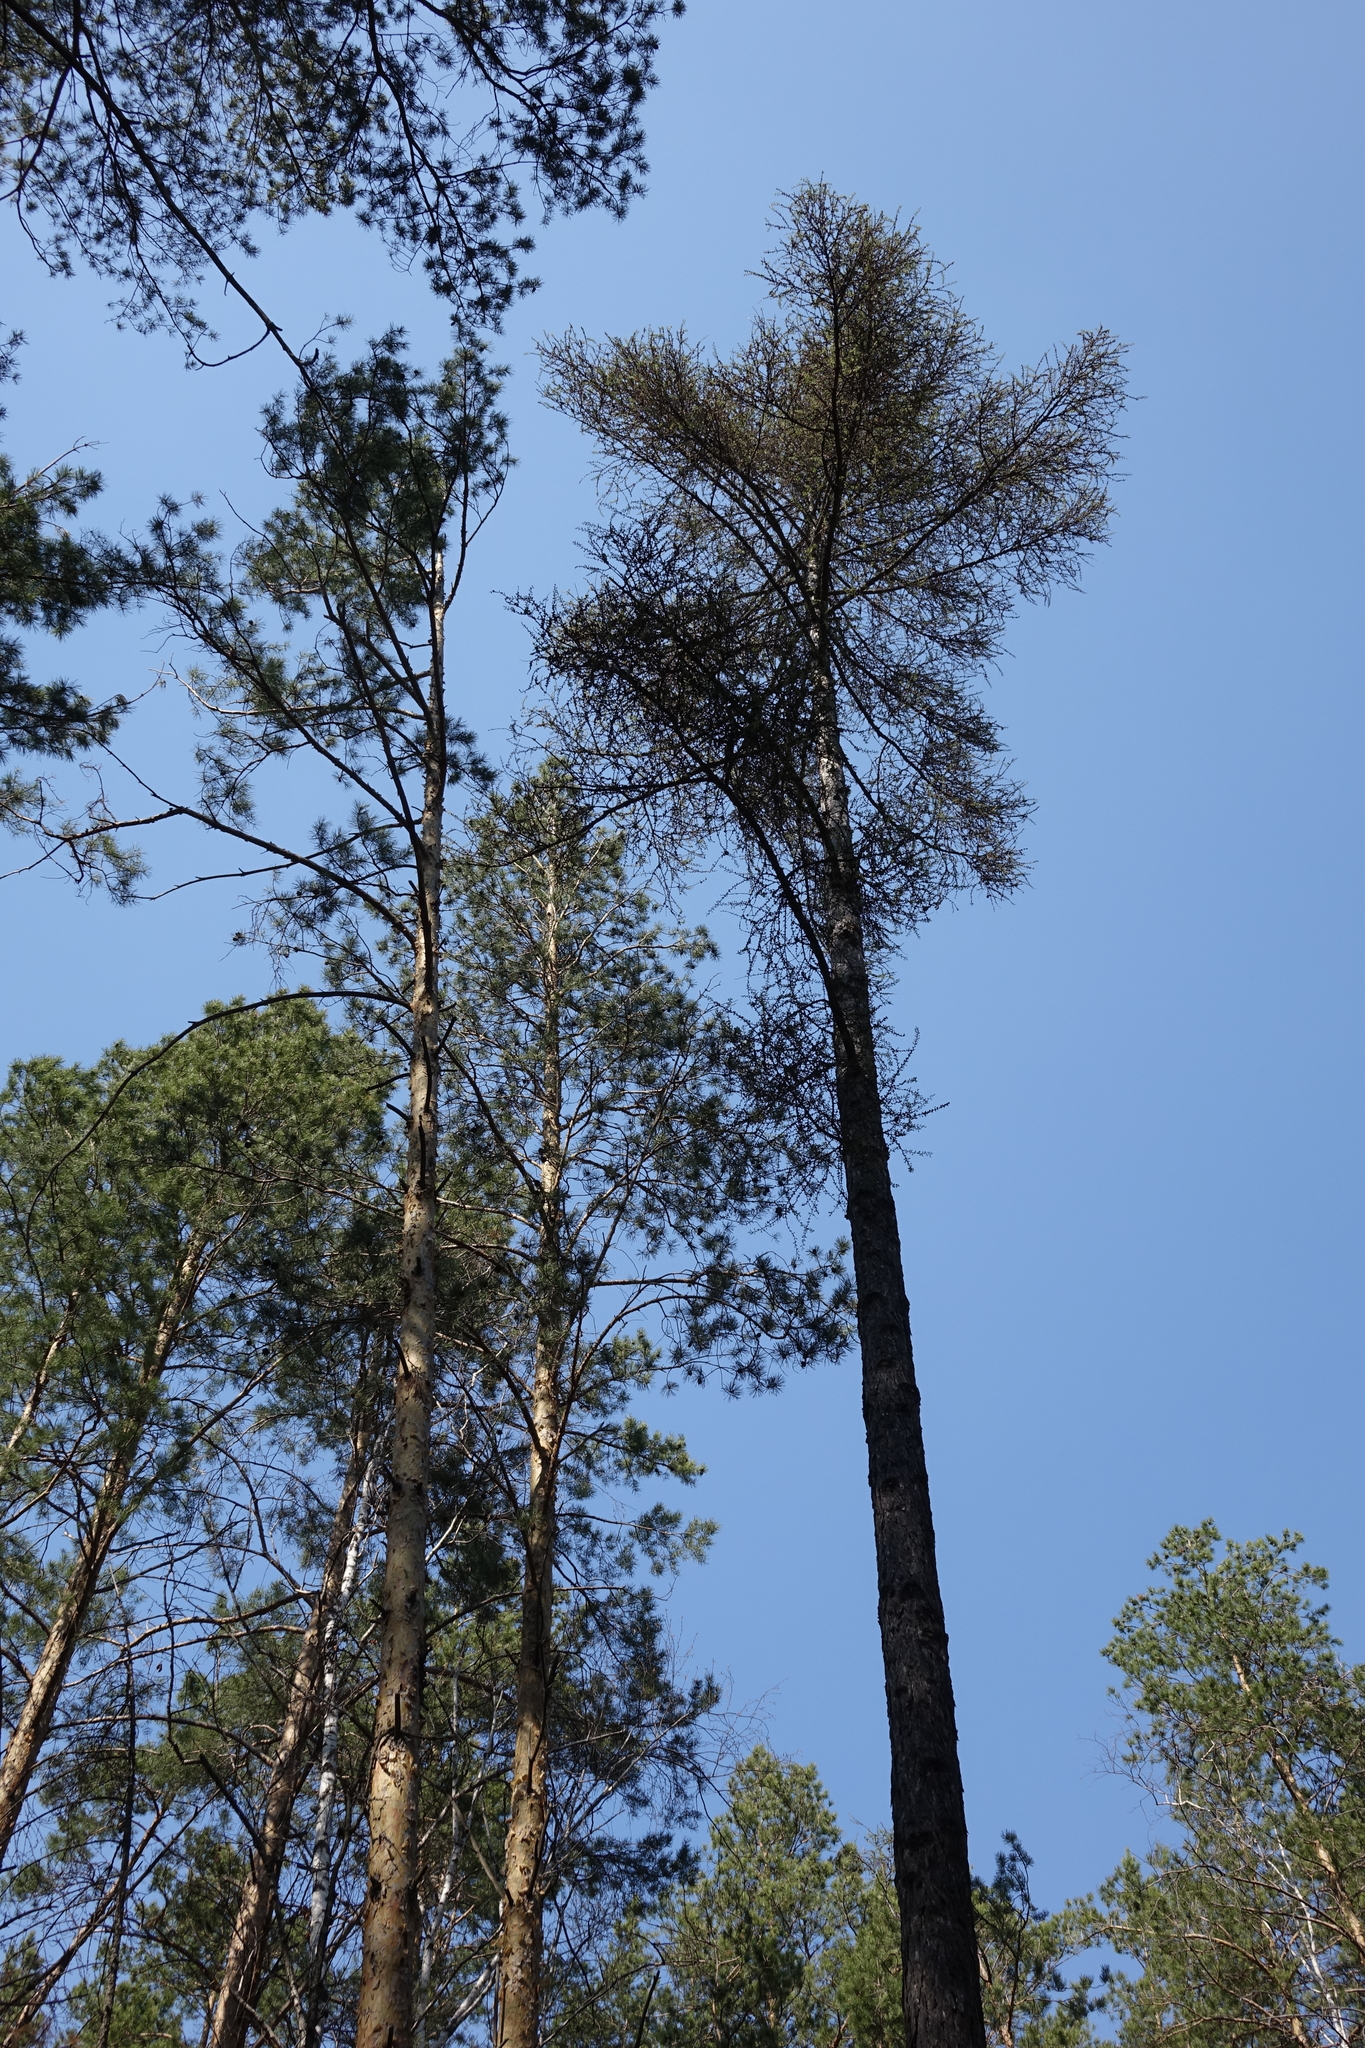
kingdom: Plantae
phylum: Tracheophyta
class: Pinopsida
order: Pinales
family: Pinaceae
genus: Larix
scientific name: Larix sibirica
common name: Siberian larch
